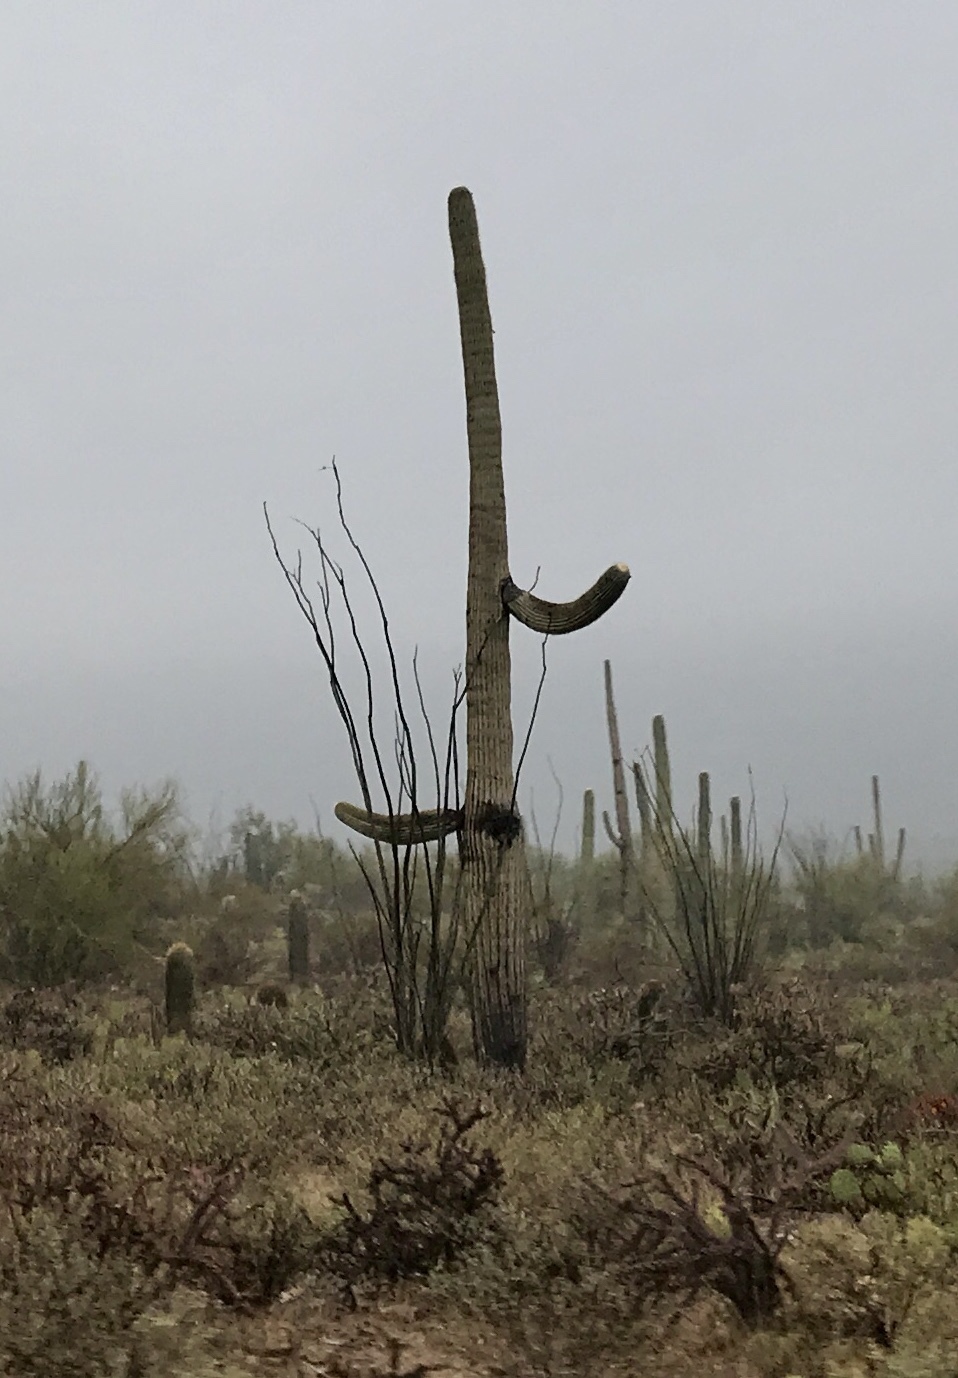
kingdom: Plantae
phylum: Tracheophyta
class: Magnoliopsida
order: Caryophyllales
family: Cactaceae
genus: Carnegiea
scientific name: Carnegiea gigantea
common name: Saguaro
